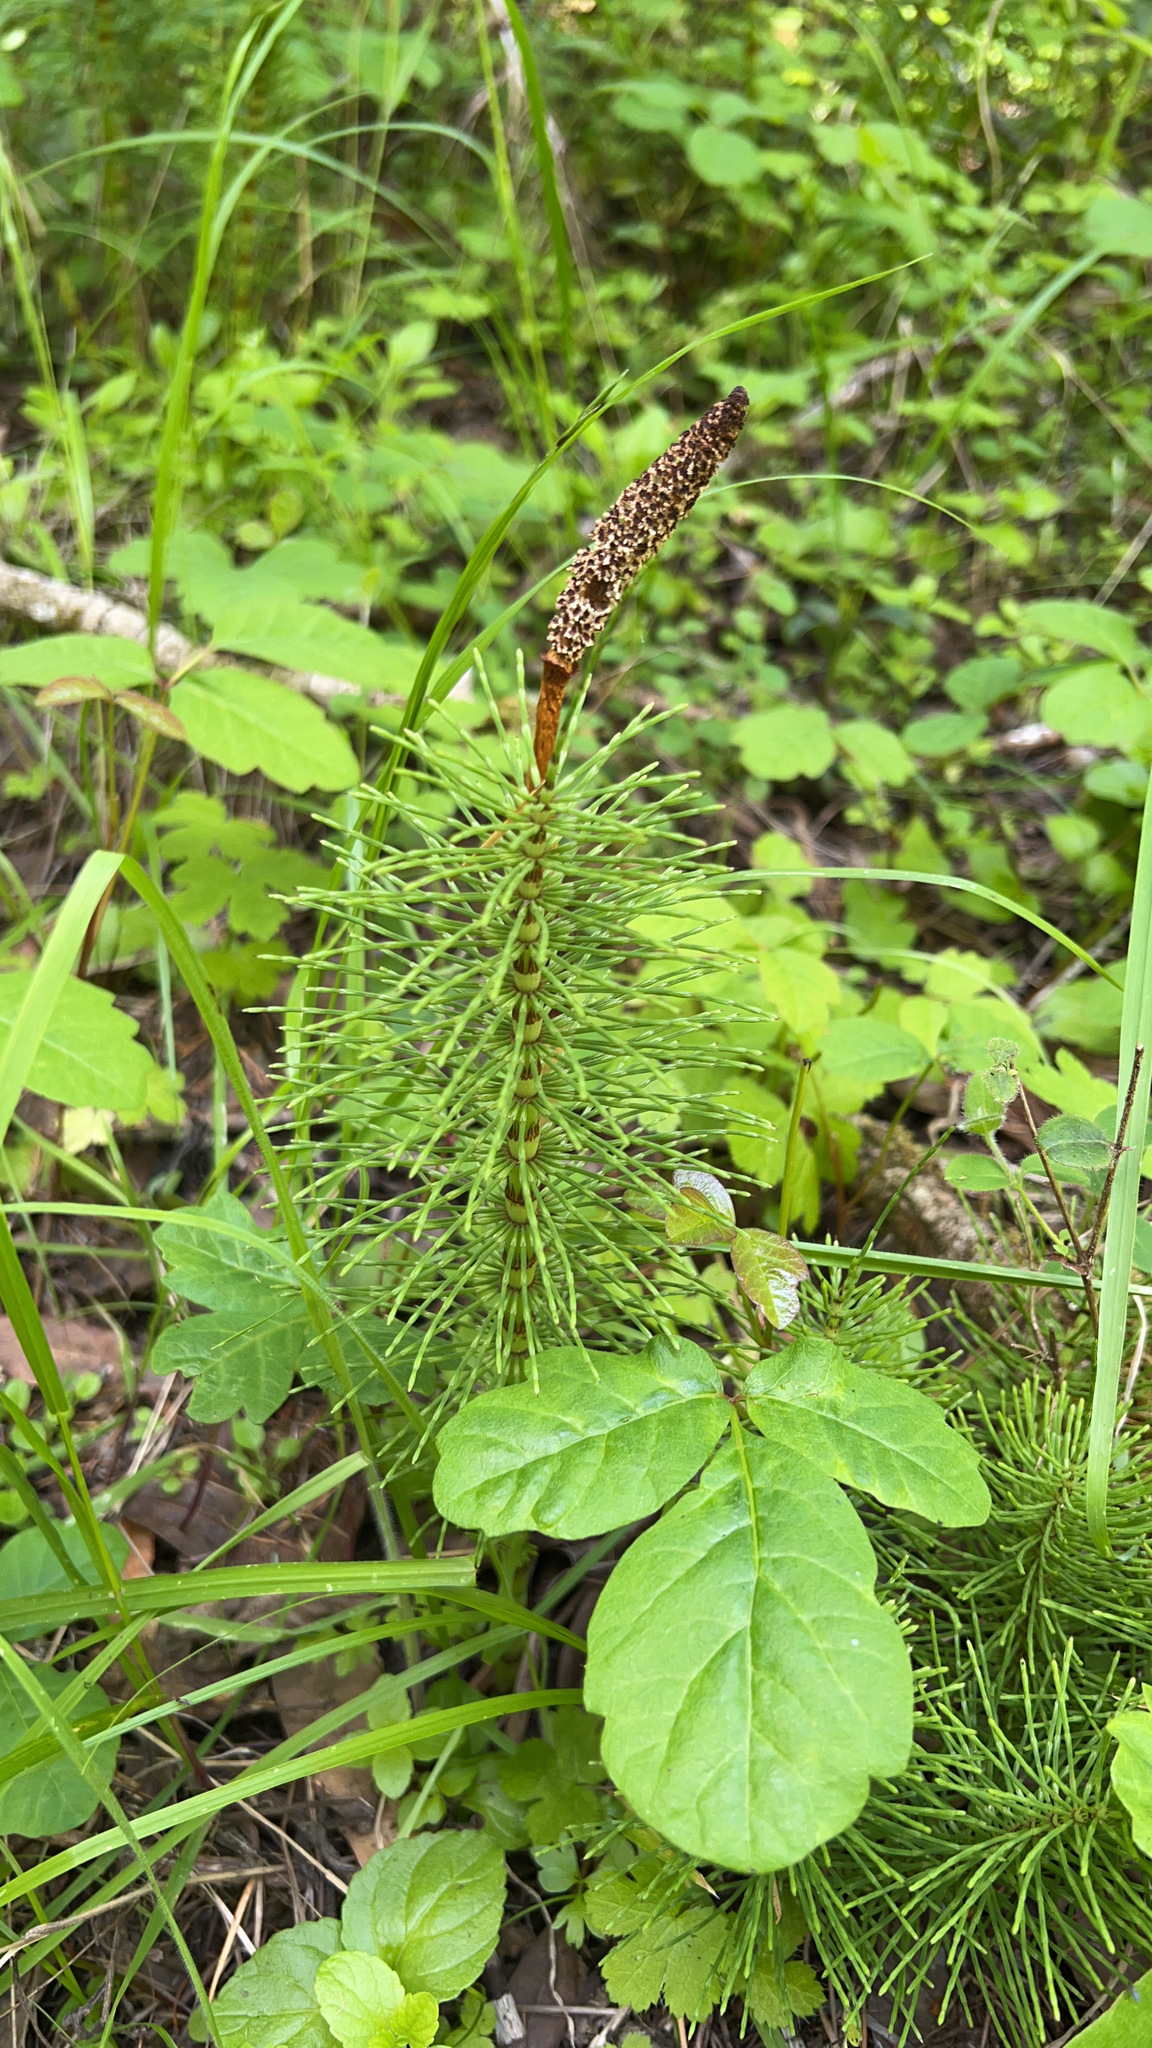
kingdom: Plantae
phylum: Tracheophyta
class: Polypodiopsida
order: Equisetales
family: Equisetaceae
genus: Equisetum
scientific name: Equisetum telmateia
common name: Great horsetail
